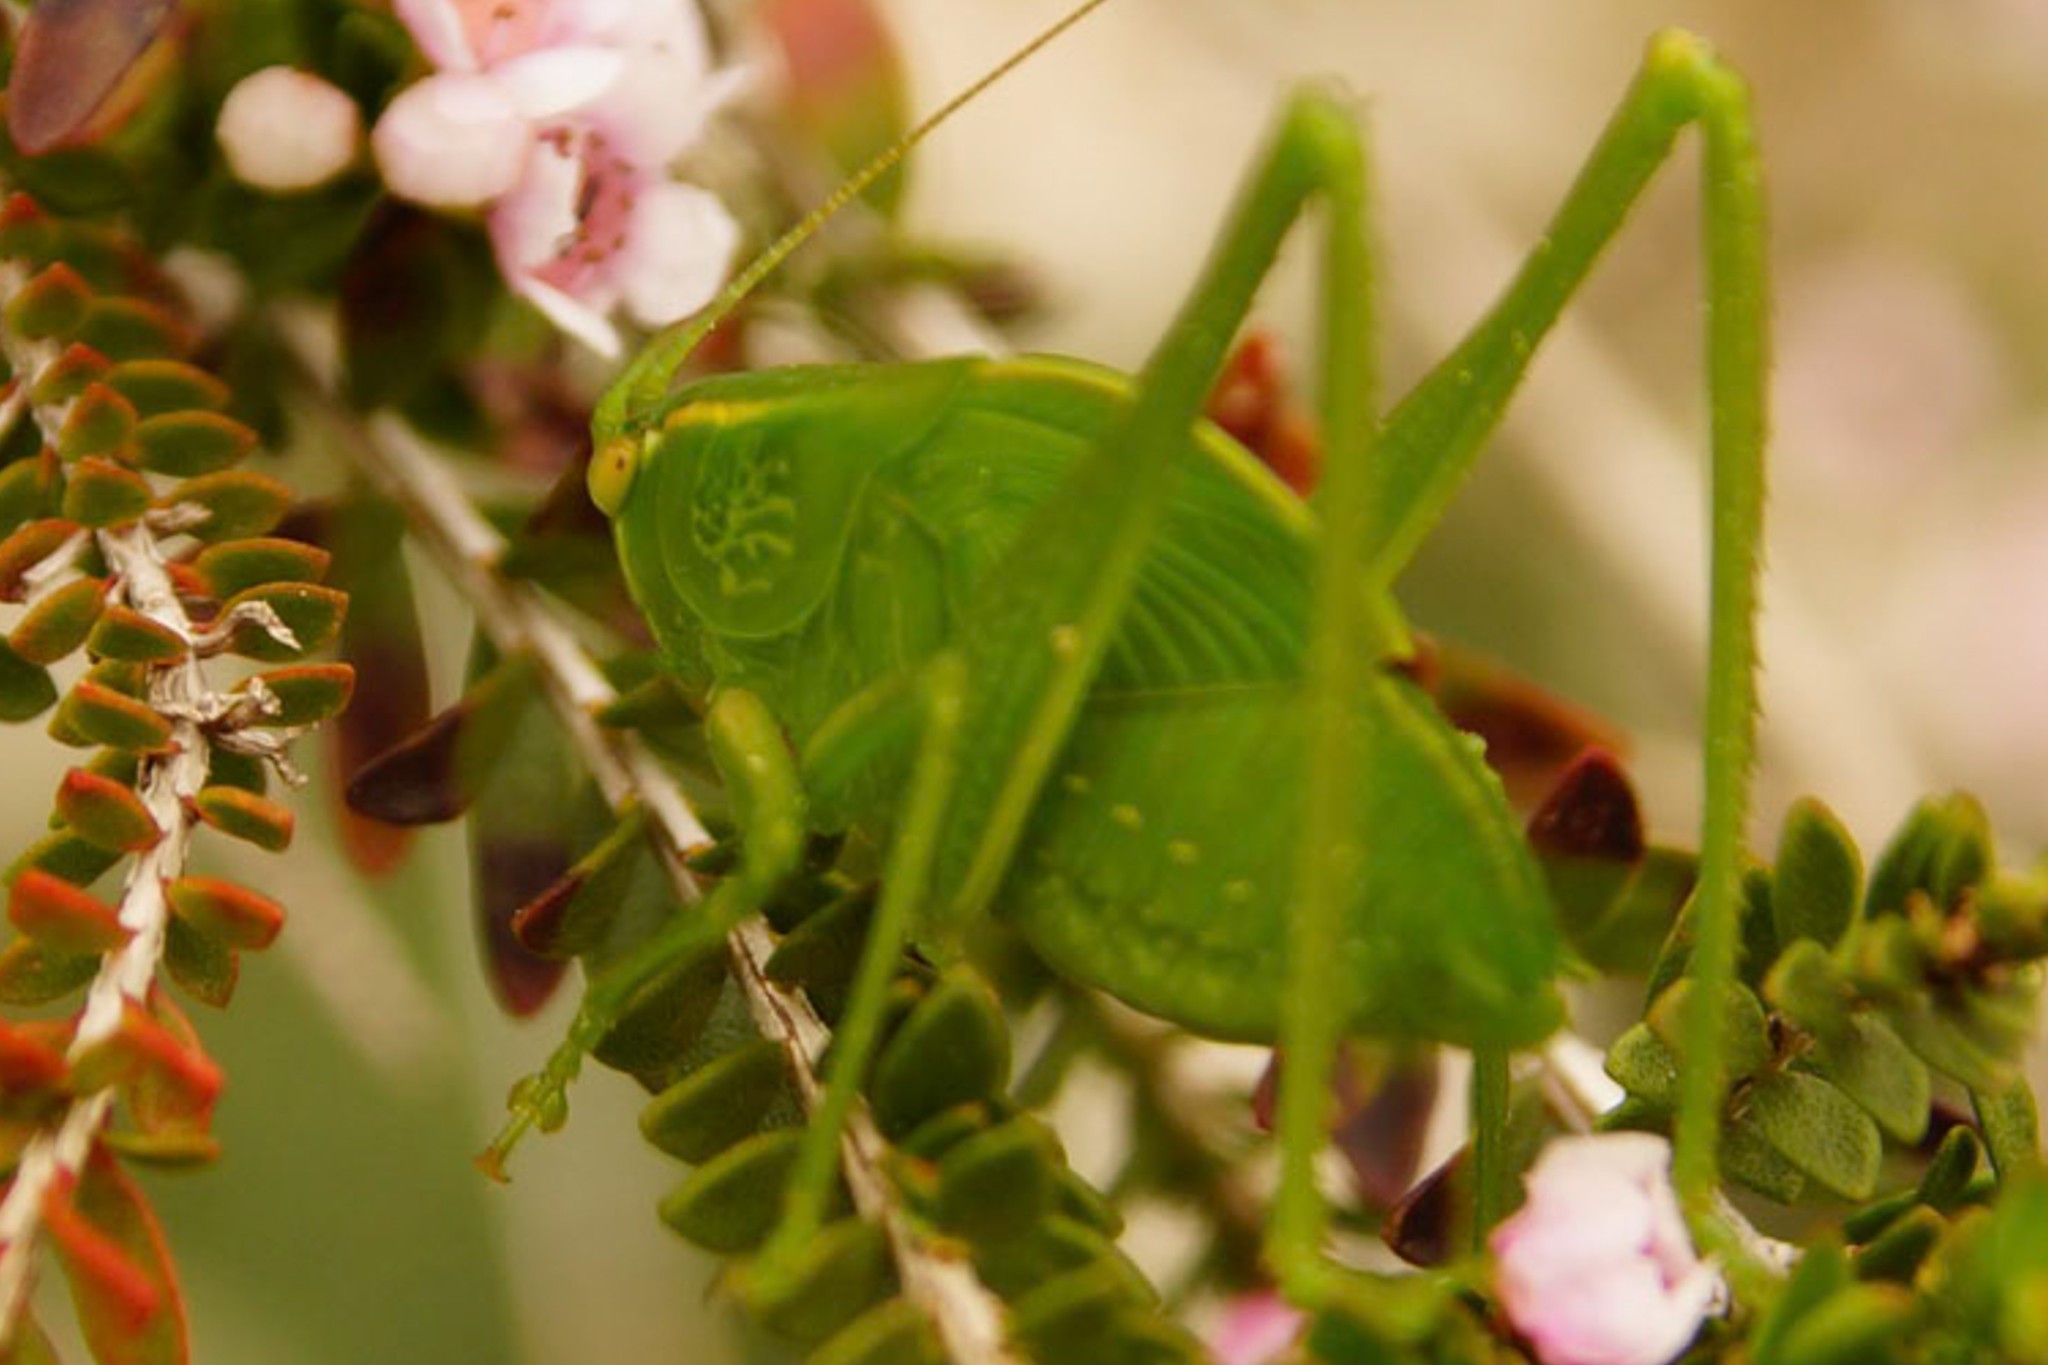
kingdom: Animalia
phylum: Arthropoda
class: Insecta
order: Orthoptera
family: Tettigoniidae
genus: Caedicia
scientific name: Caedicia simplex
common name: Common garden katydid
